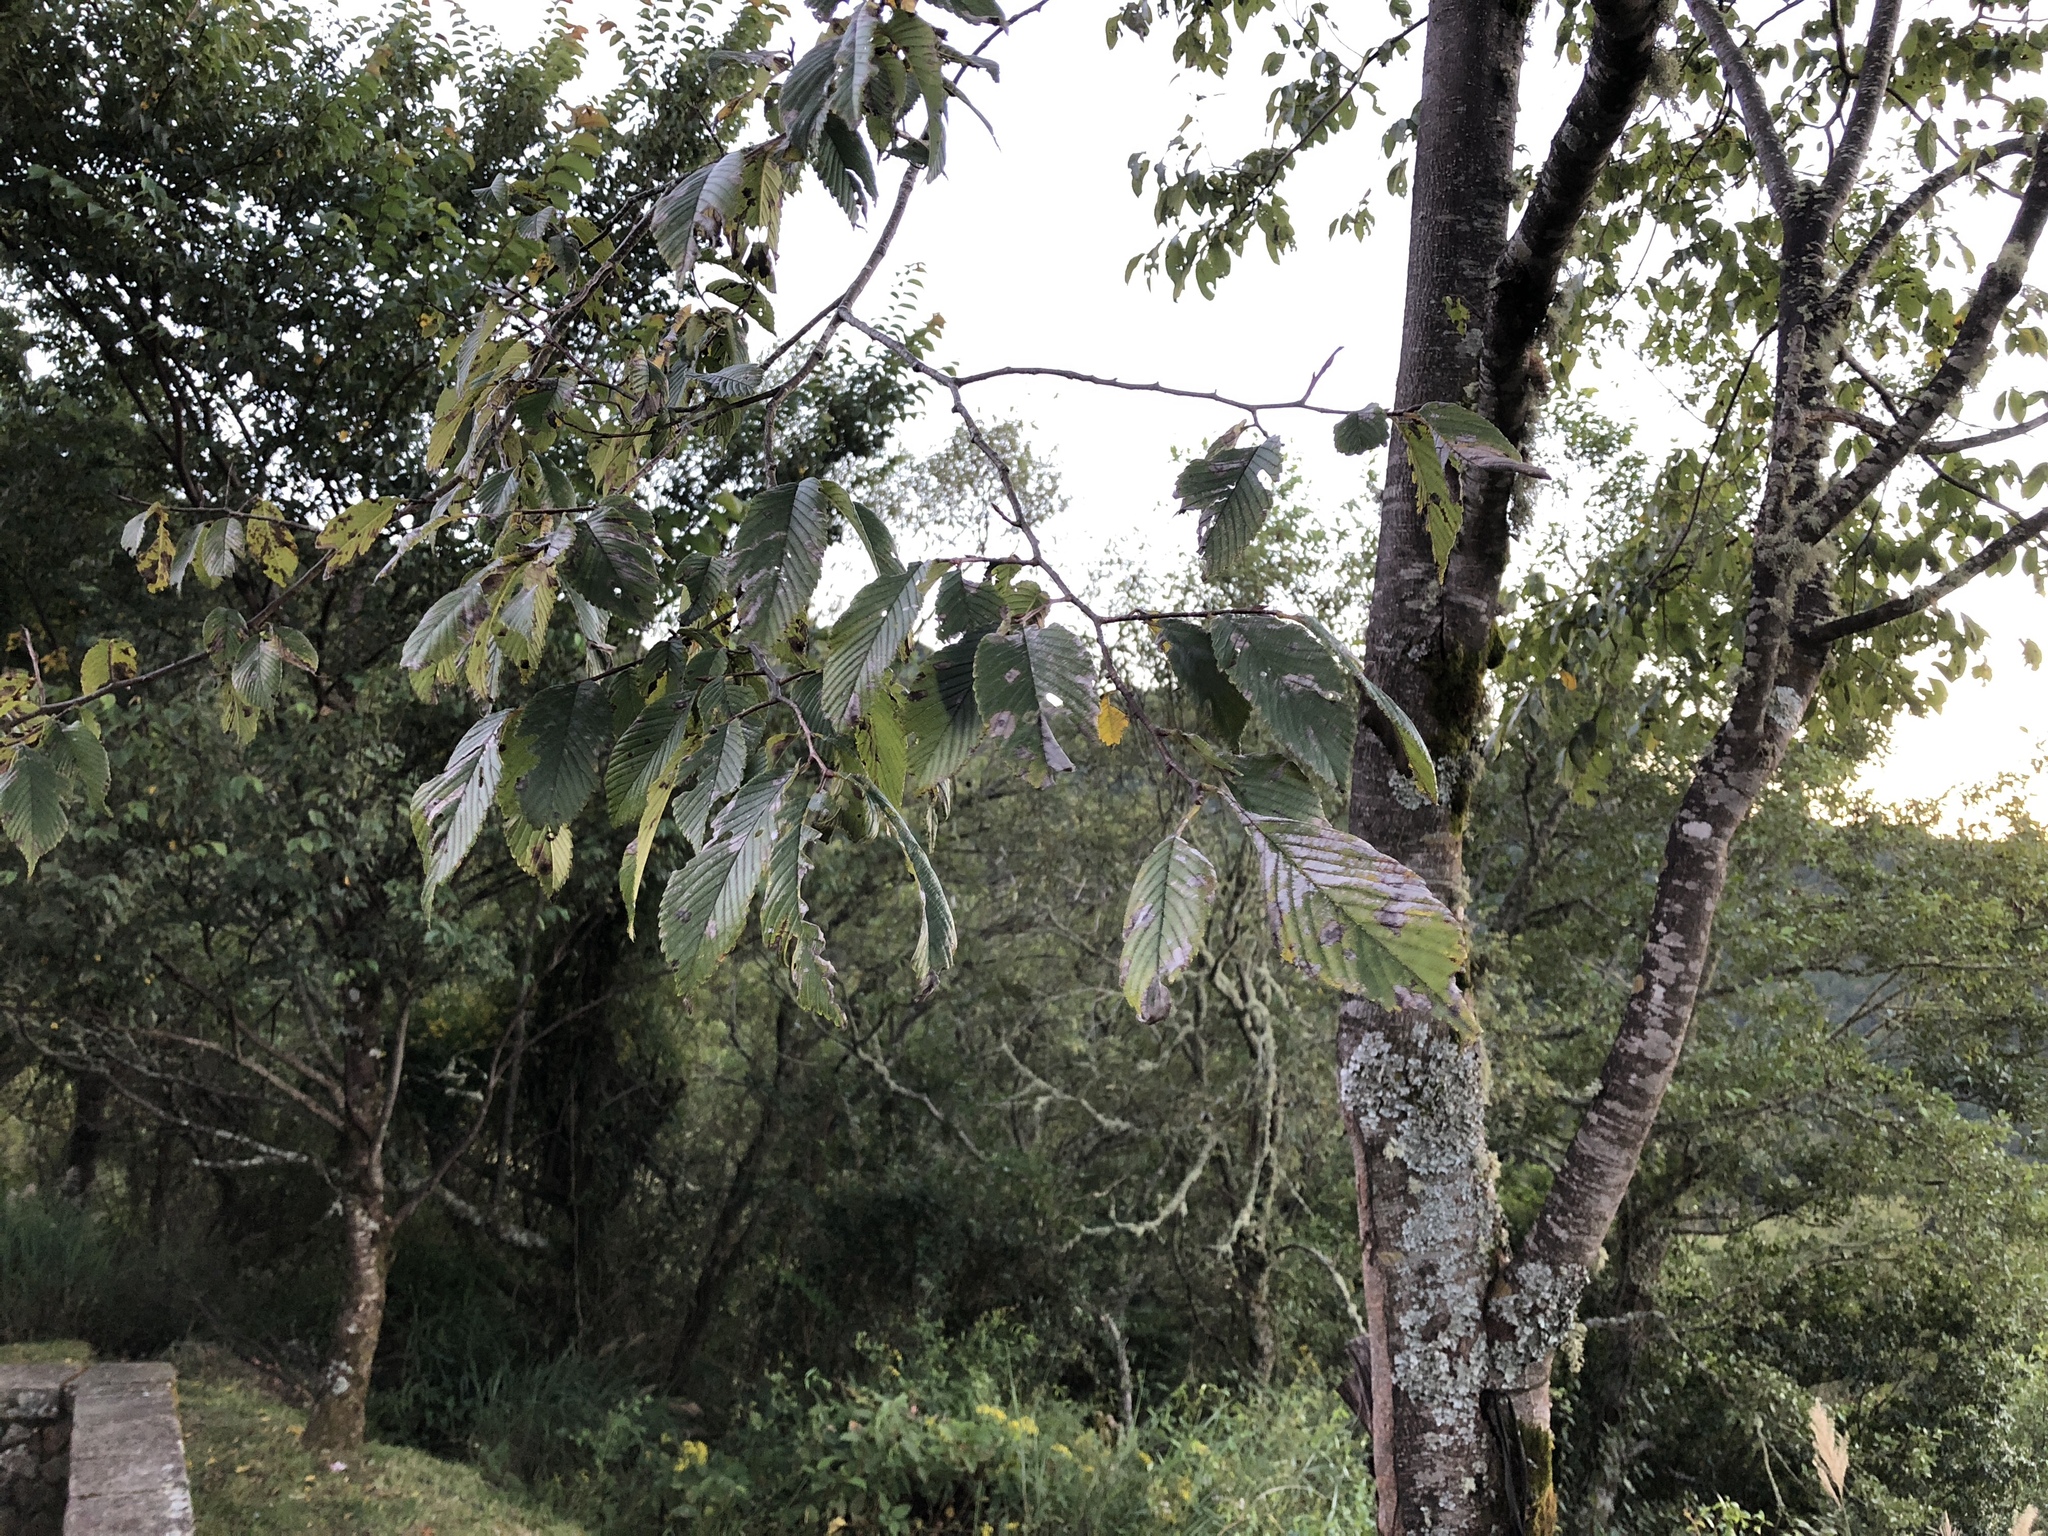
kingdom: Plantae
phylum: Tracheophyta
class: Magnoliopsida
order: Rosales
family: Ulmaceae
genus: Ulmus
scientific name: Ulmus uyematsui
